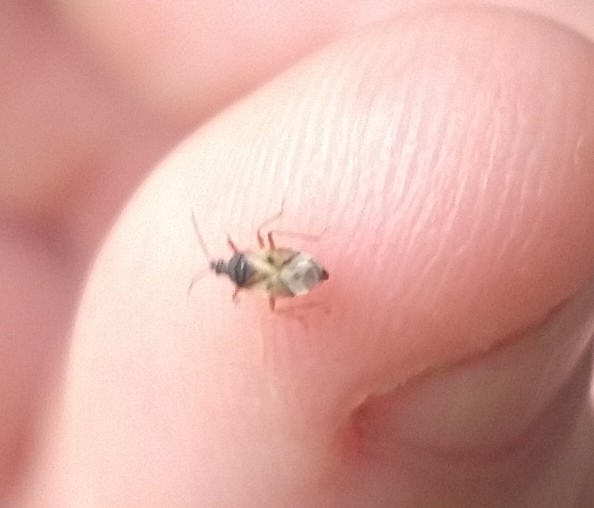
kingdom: Animalia
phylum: Arthropoda
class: Insecta
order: Hemiptera
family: Anthocoridae
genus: Anthocoris
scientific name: Anthocoris nemorum
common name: Minute pirate bug
